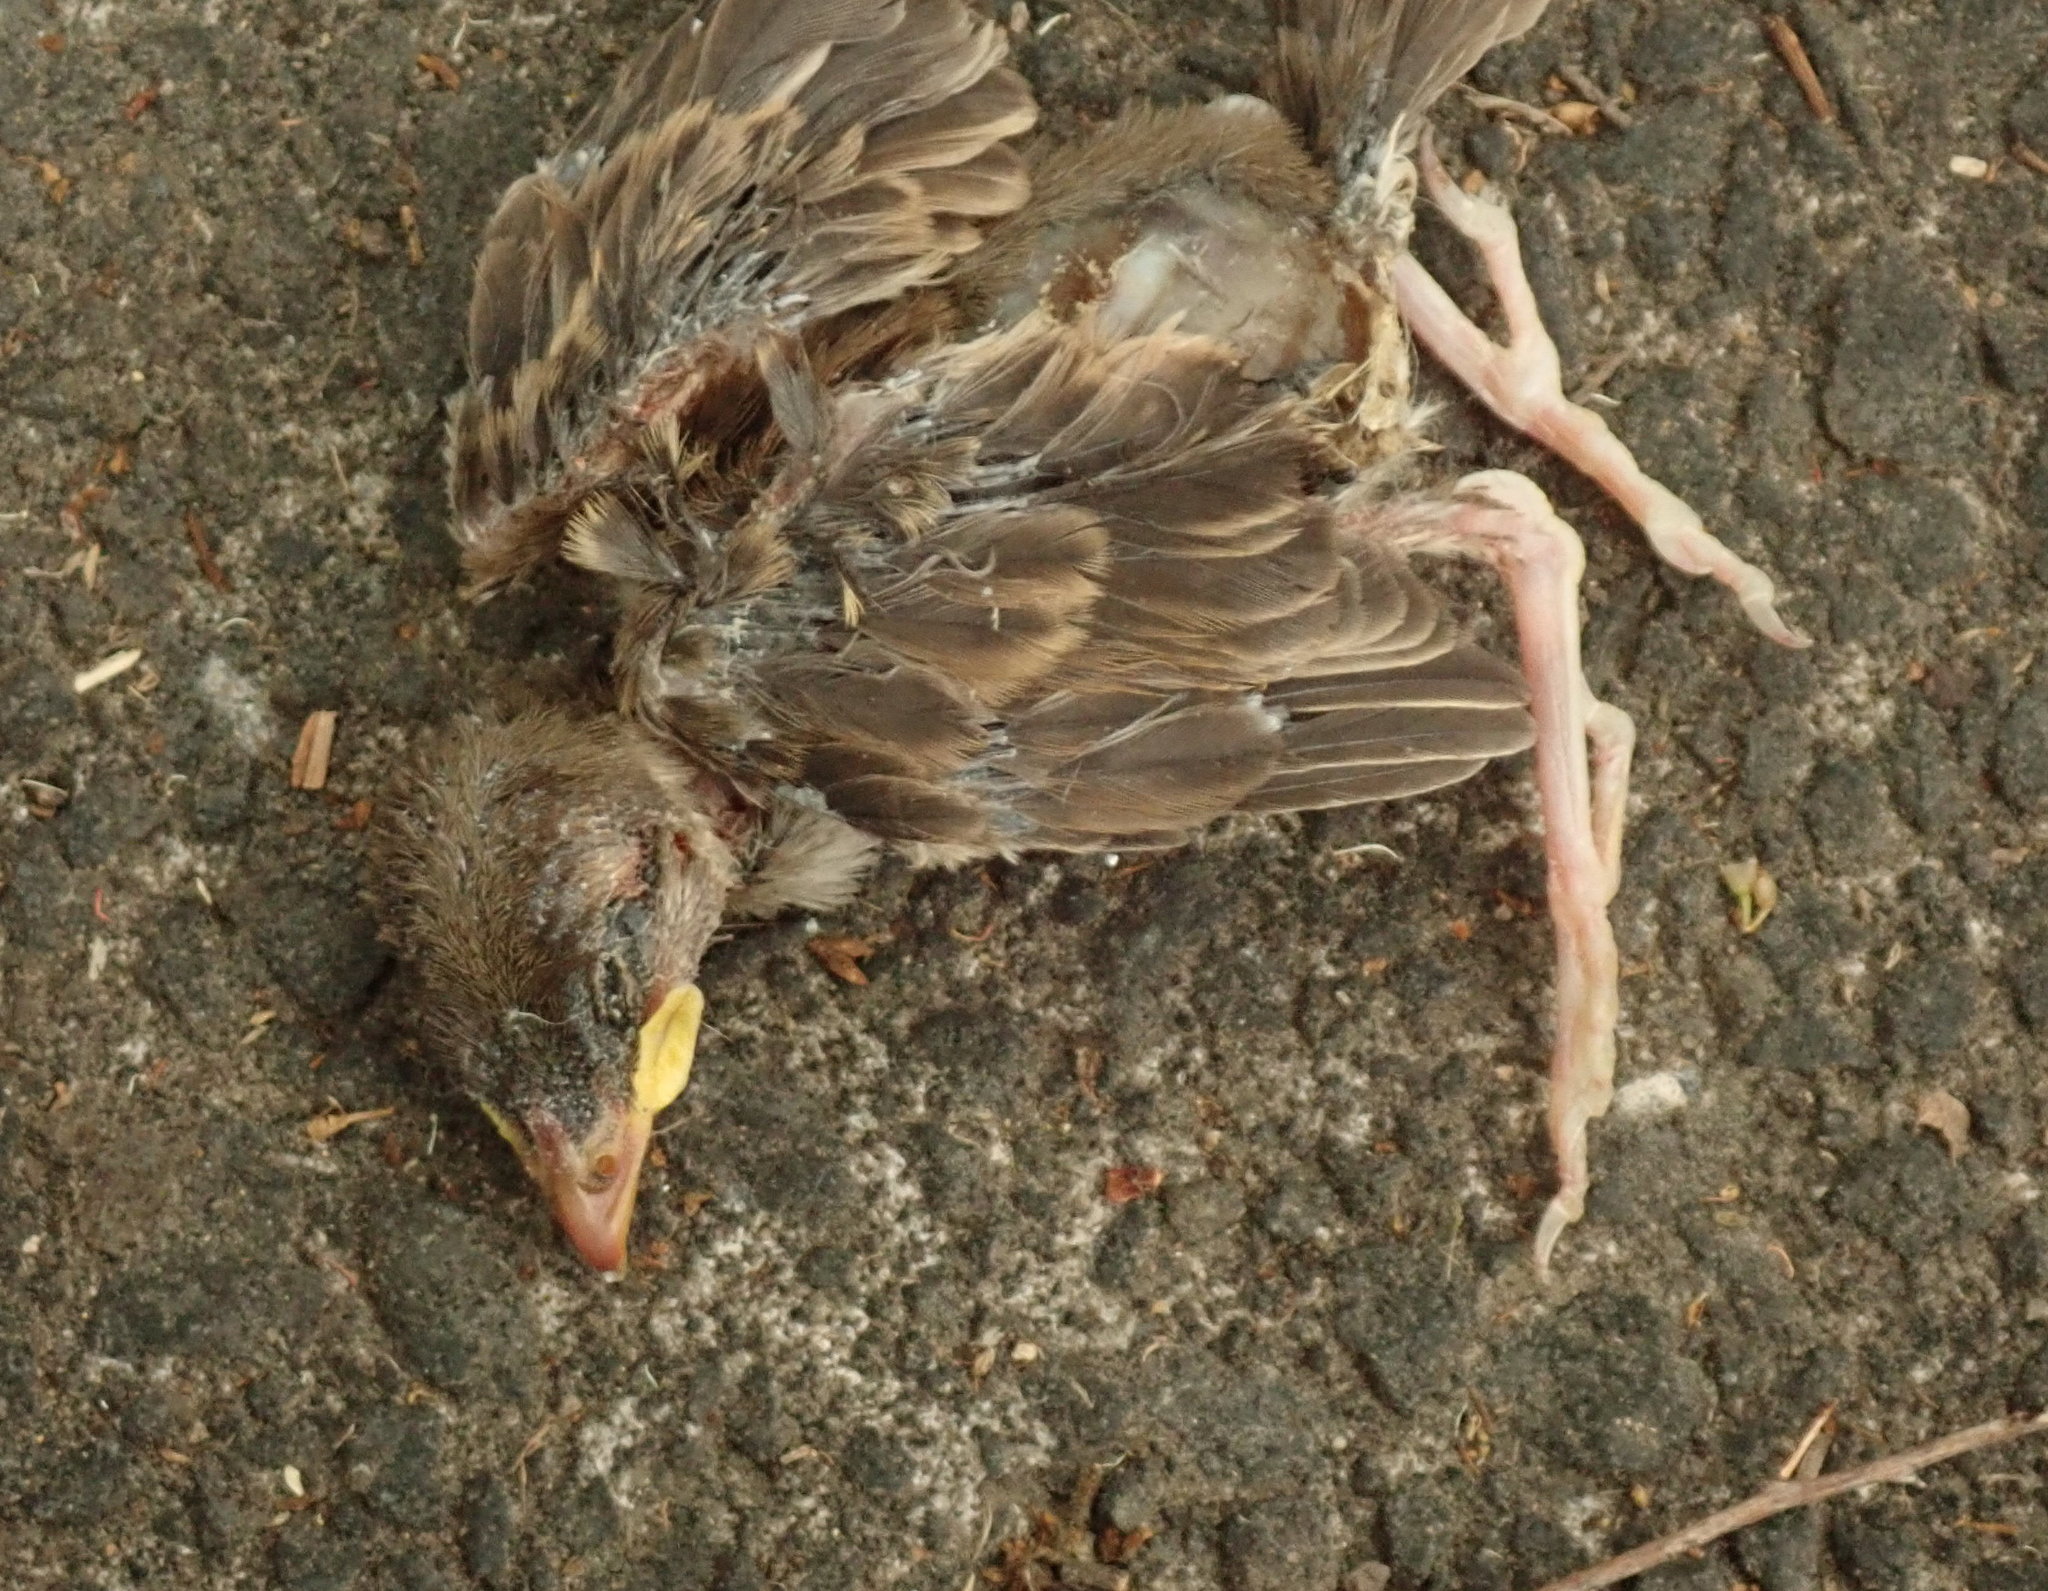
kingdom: Animalia
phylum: Chordata
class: Aves
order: Passeriformes
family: Passeridae
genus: Passer
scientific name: Passer domesticus
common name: House sparrow
